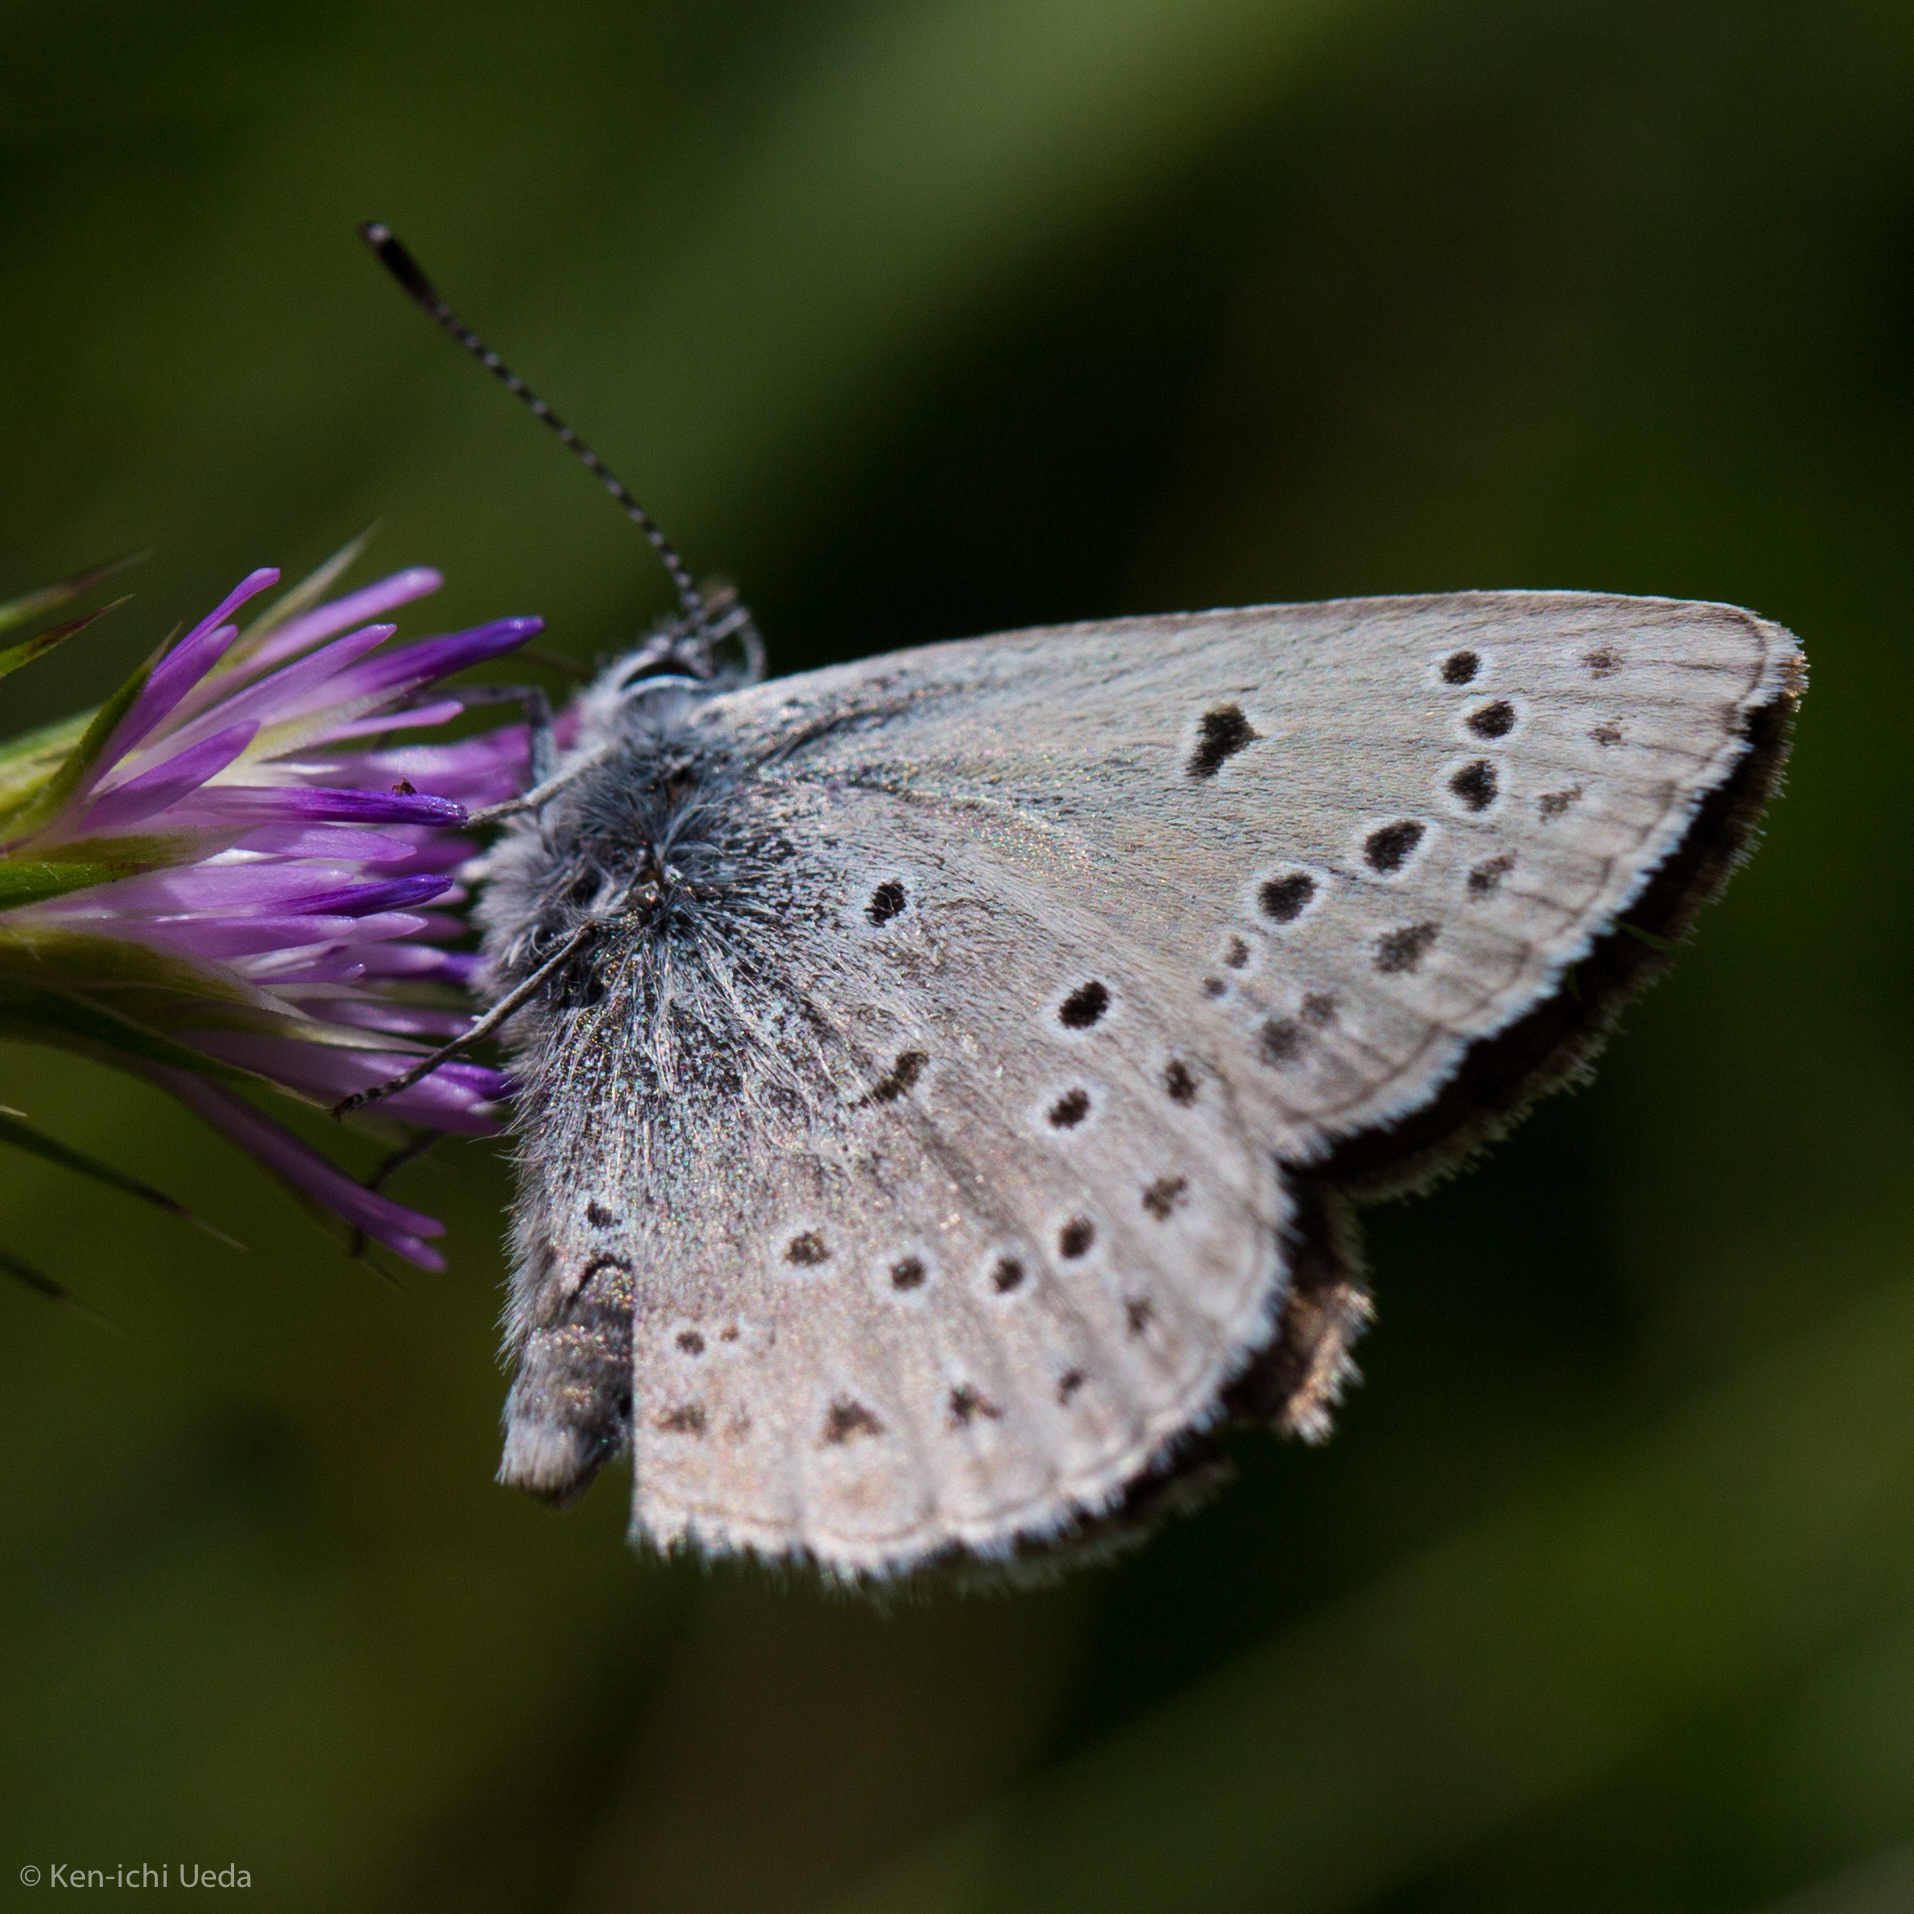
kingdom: Animalia
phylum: Arthropoda
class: Insecta
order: Lepidoptera
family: Lycaenidae
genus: Icaricia
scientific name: Icaricia icarioides
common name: Boisduval's blue
